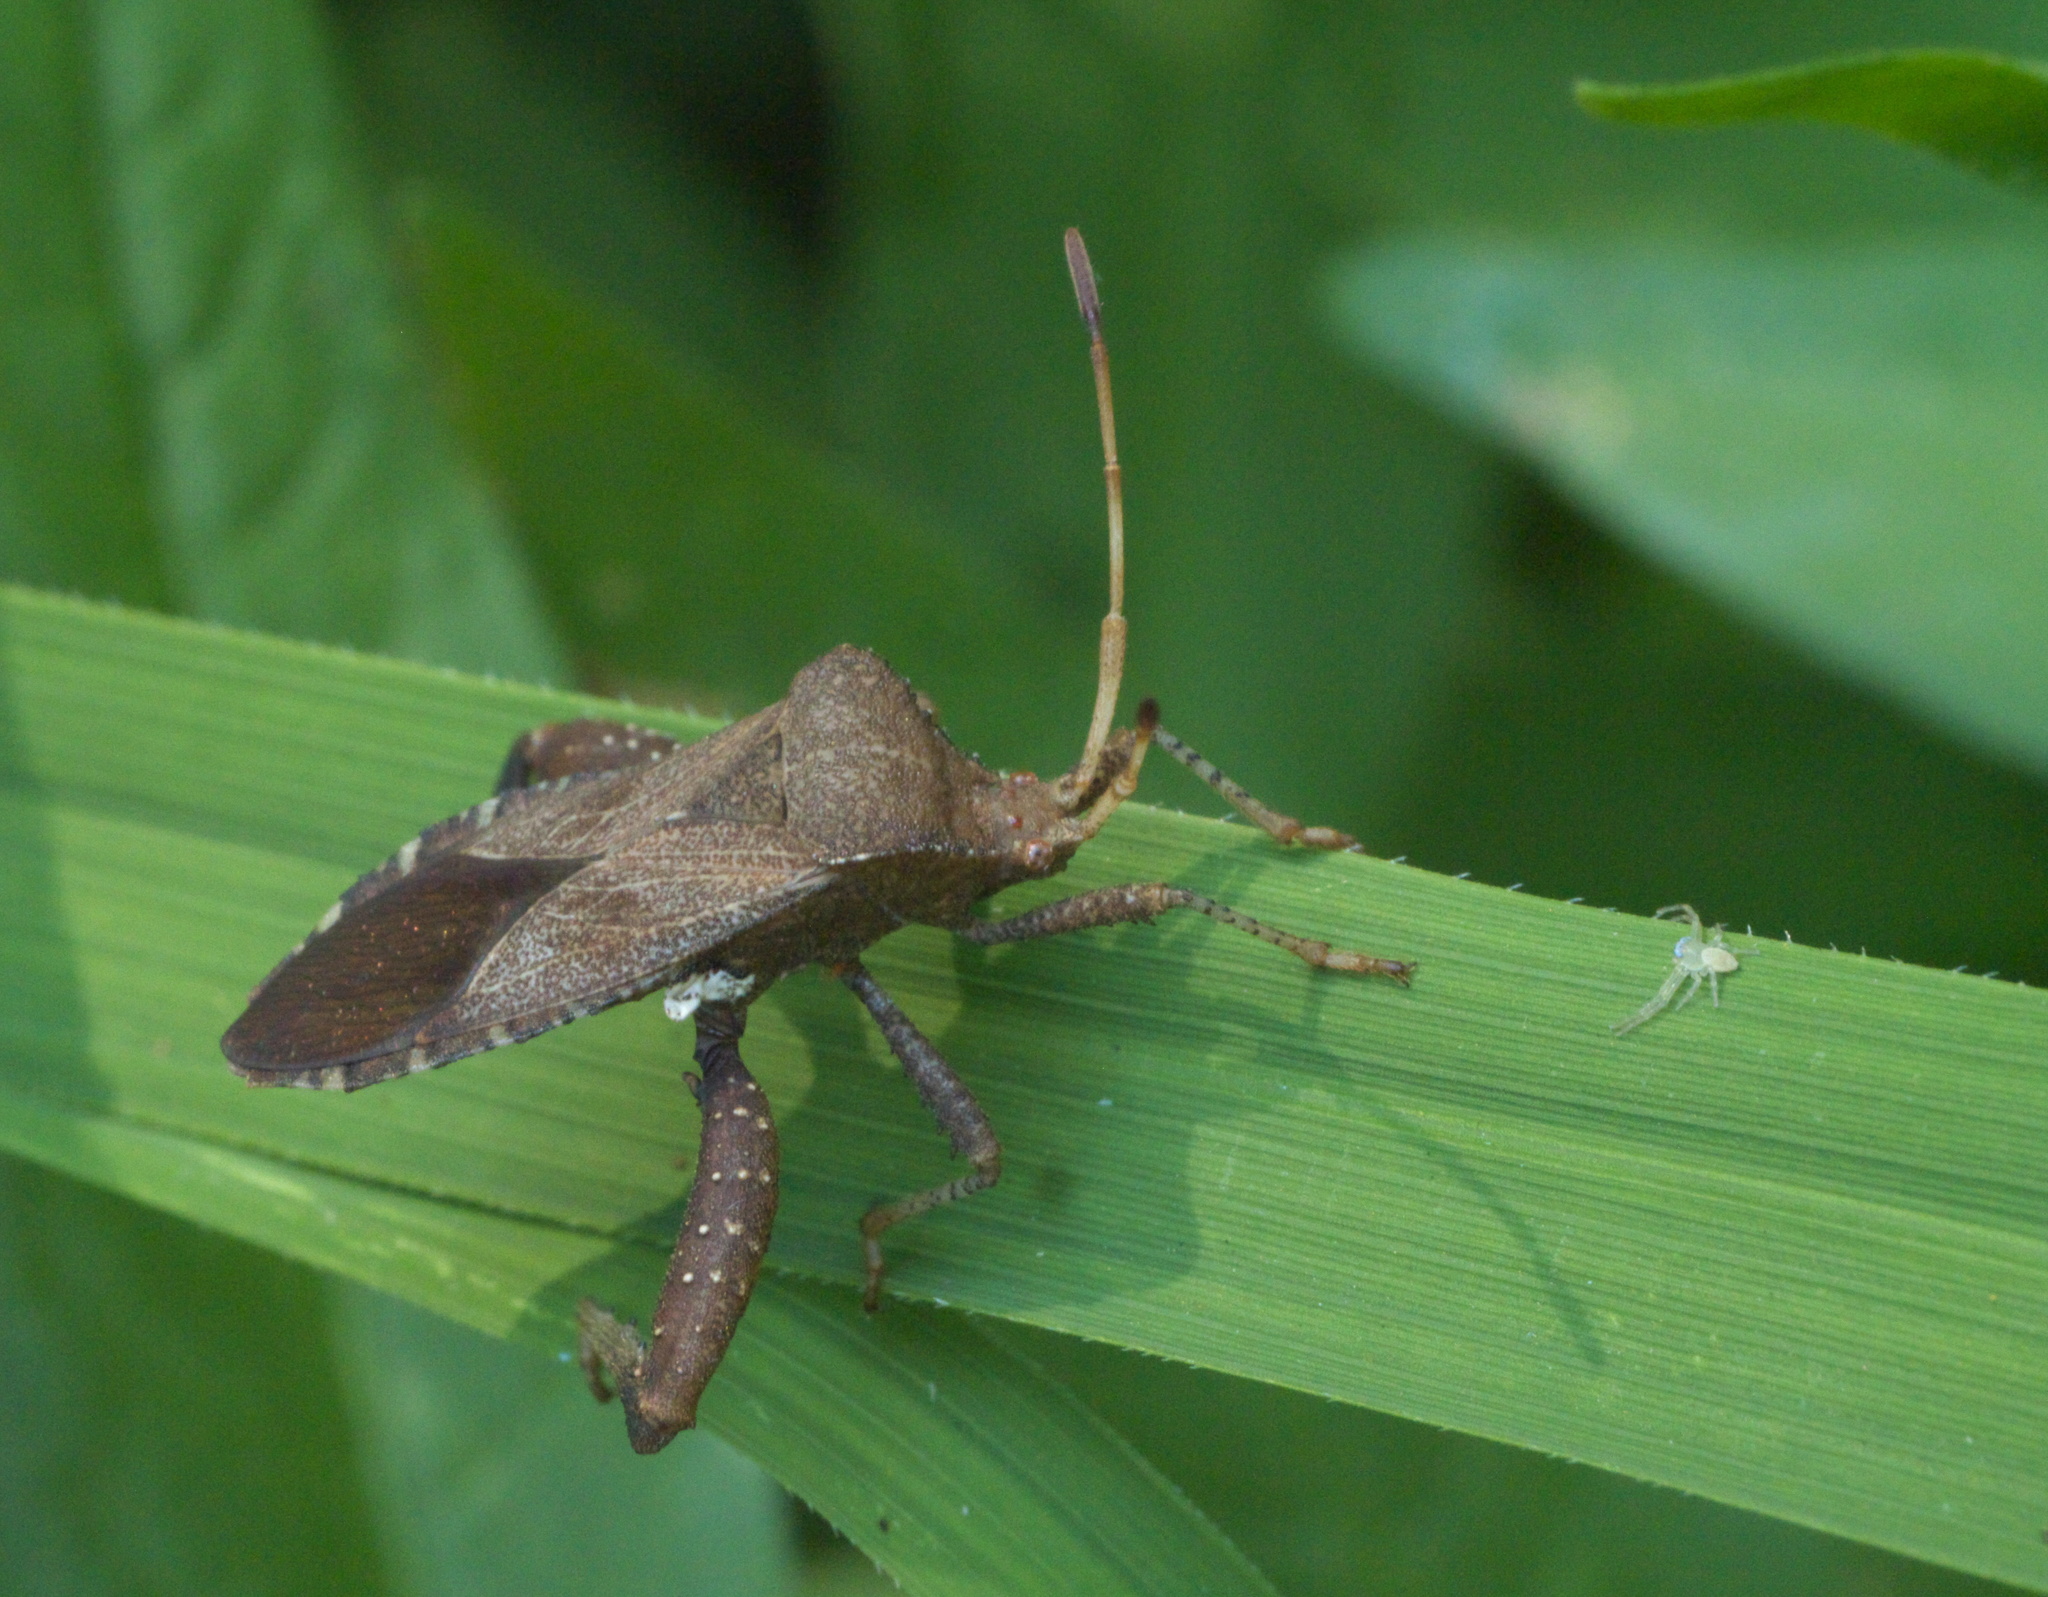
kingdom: Animalia
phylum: Arthropoda
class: Insecta
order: Hemiptera
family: Coreidae
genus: Euthochtha
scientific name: Euthochtha galeator
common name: Helmeted squash bug
